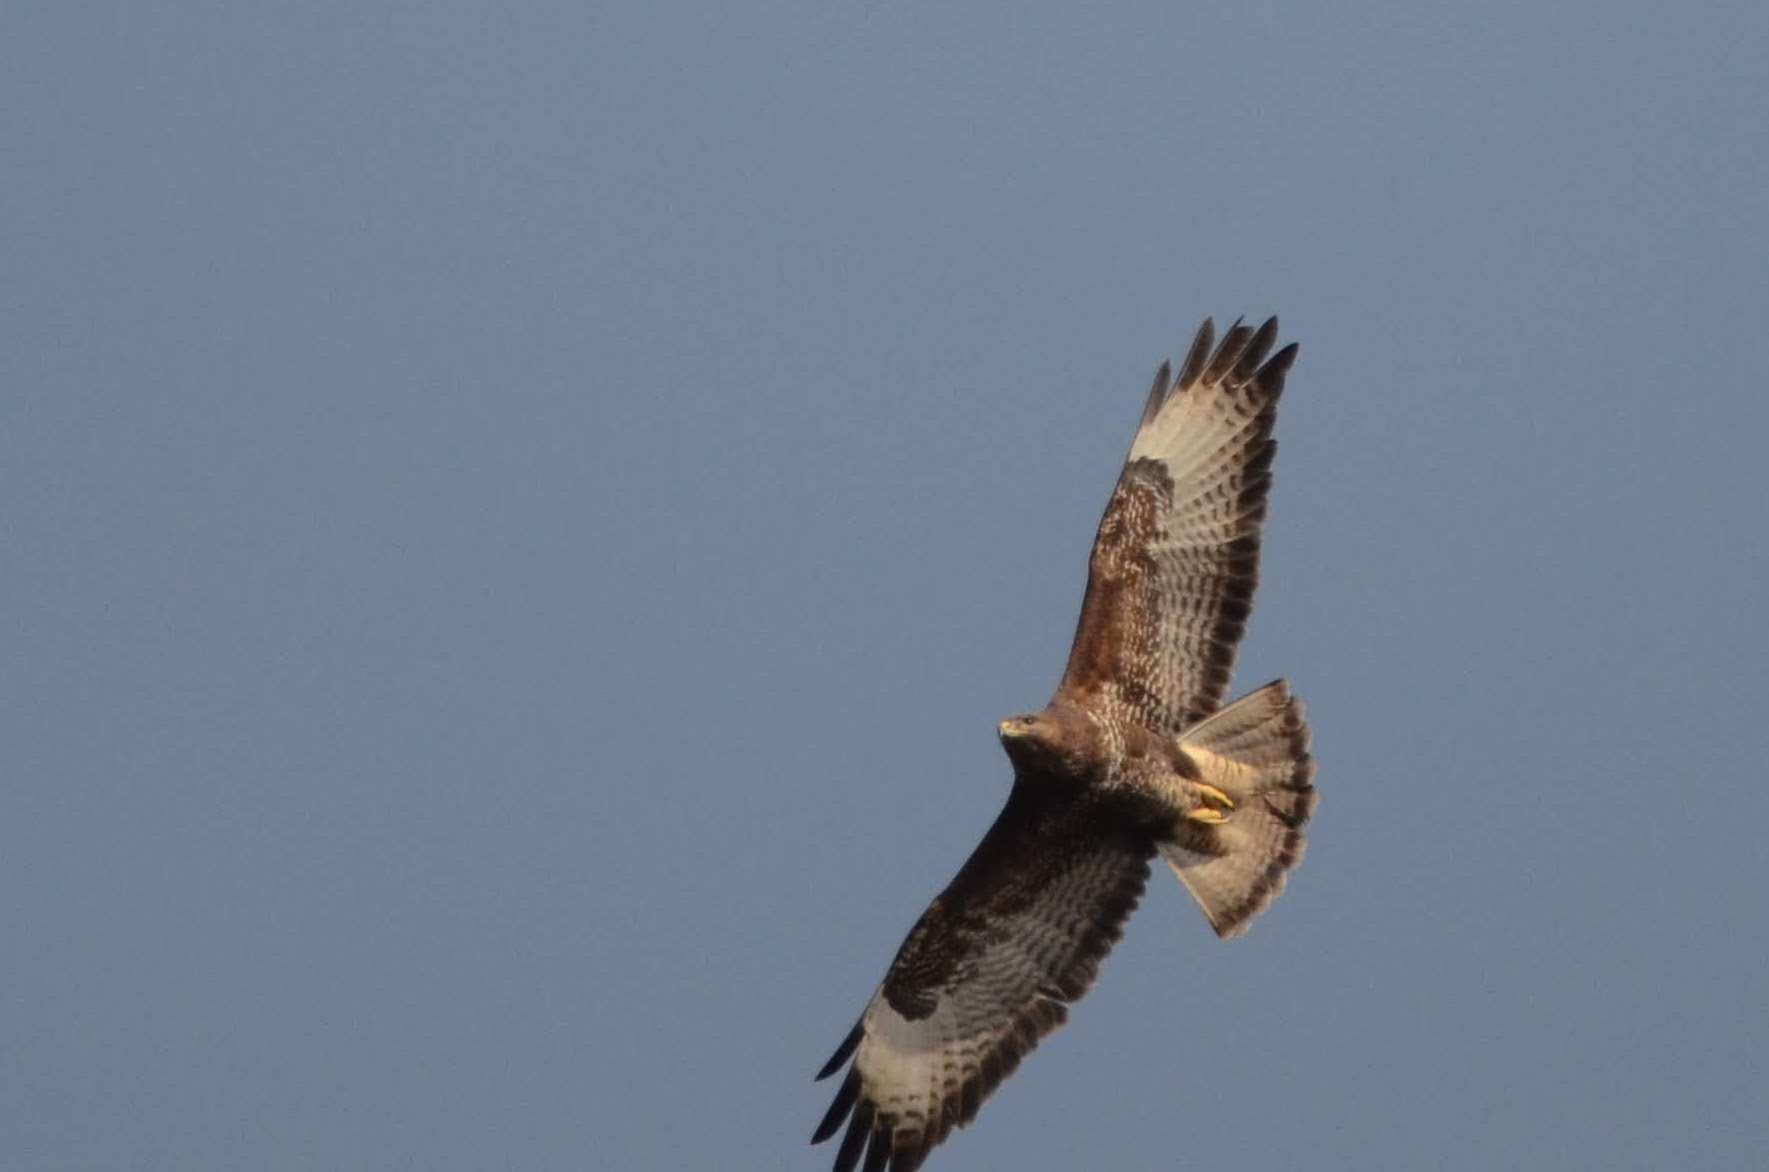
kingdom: Animalia
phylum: Chordata
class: Aves
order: Accipitriformes
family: Accipitridae
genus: Buteo
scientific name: Buteo buteo
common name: Common buzzard
